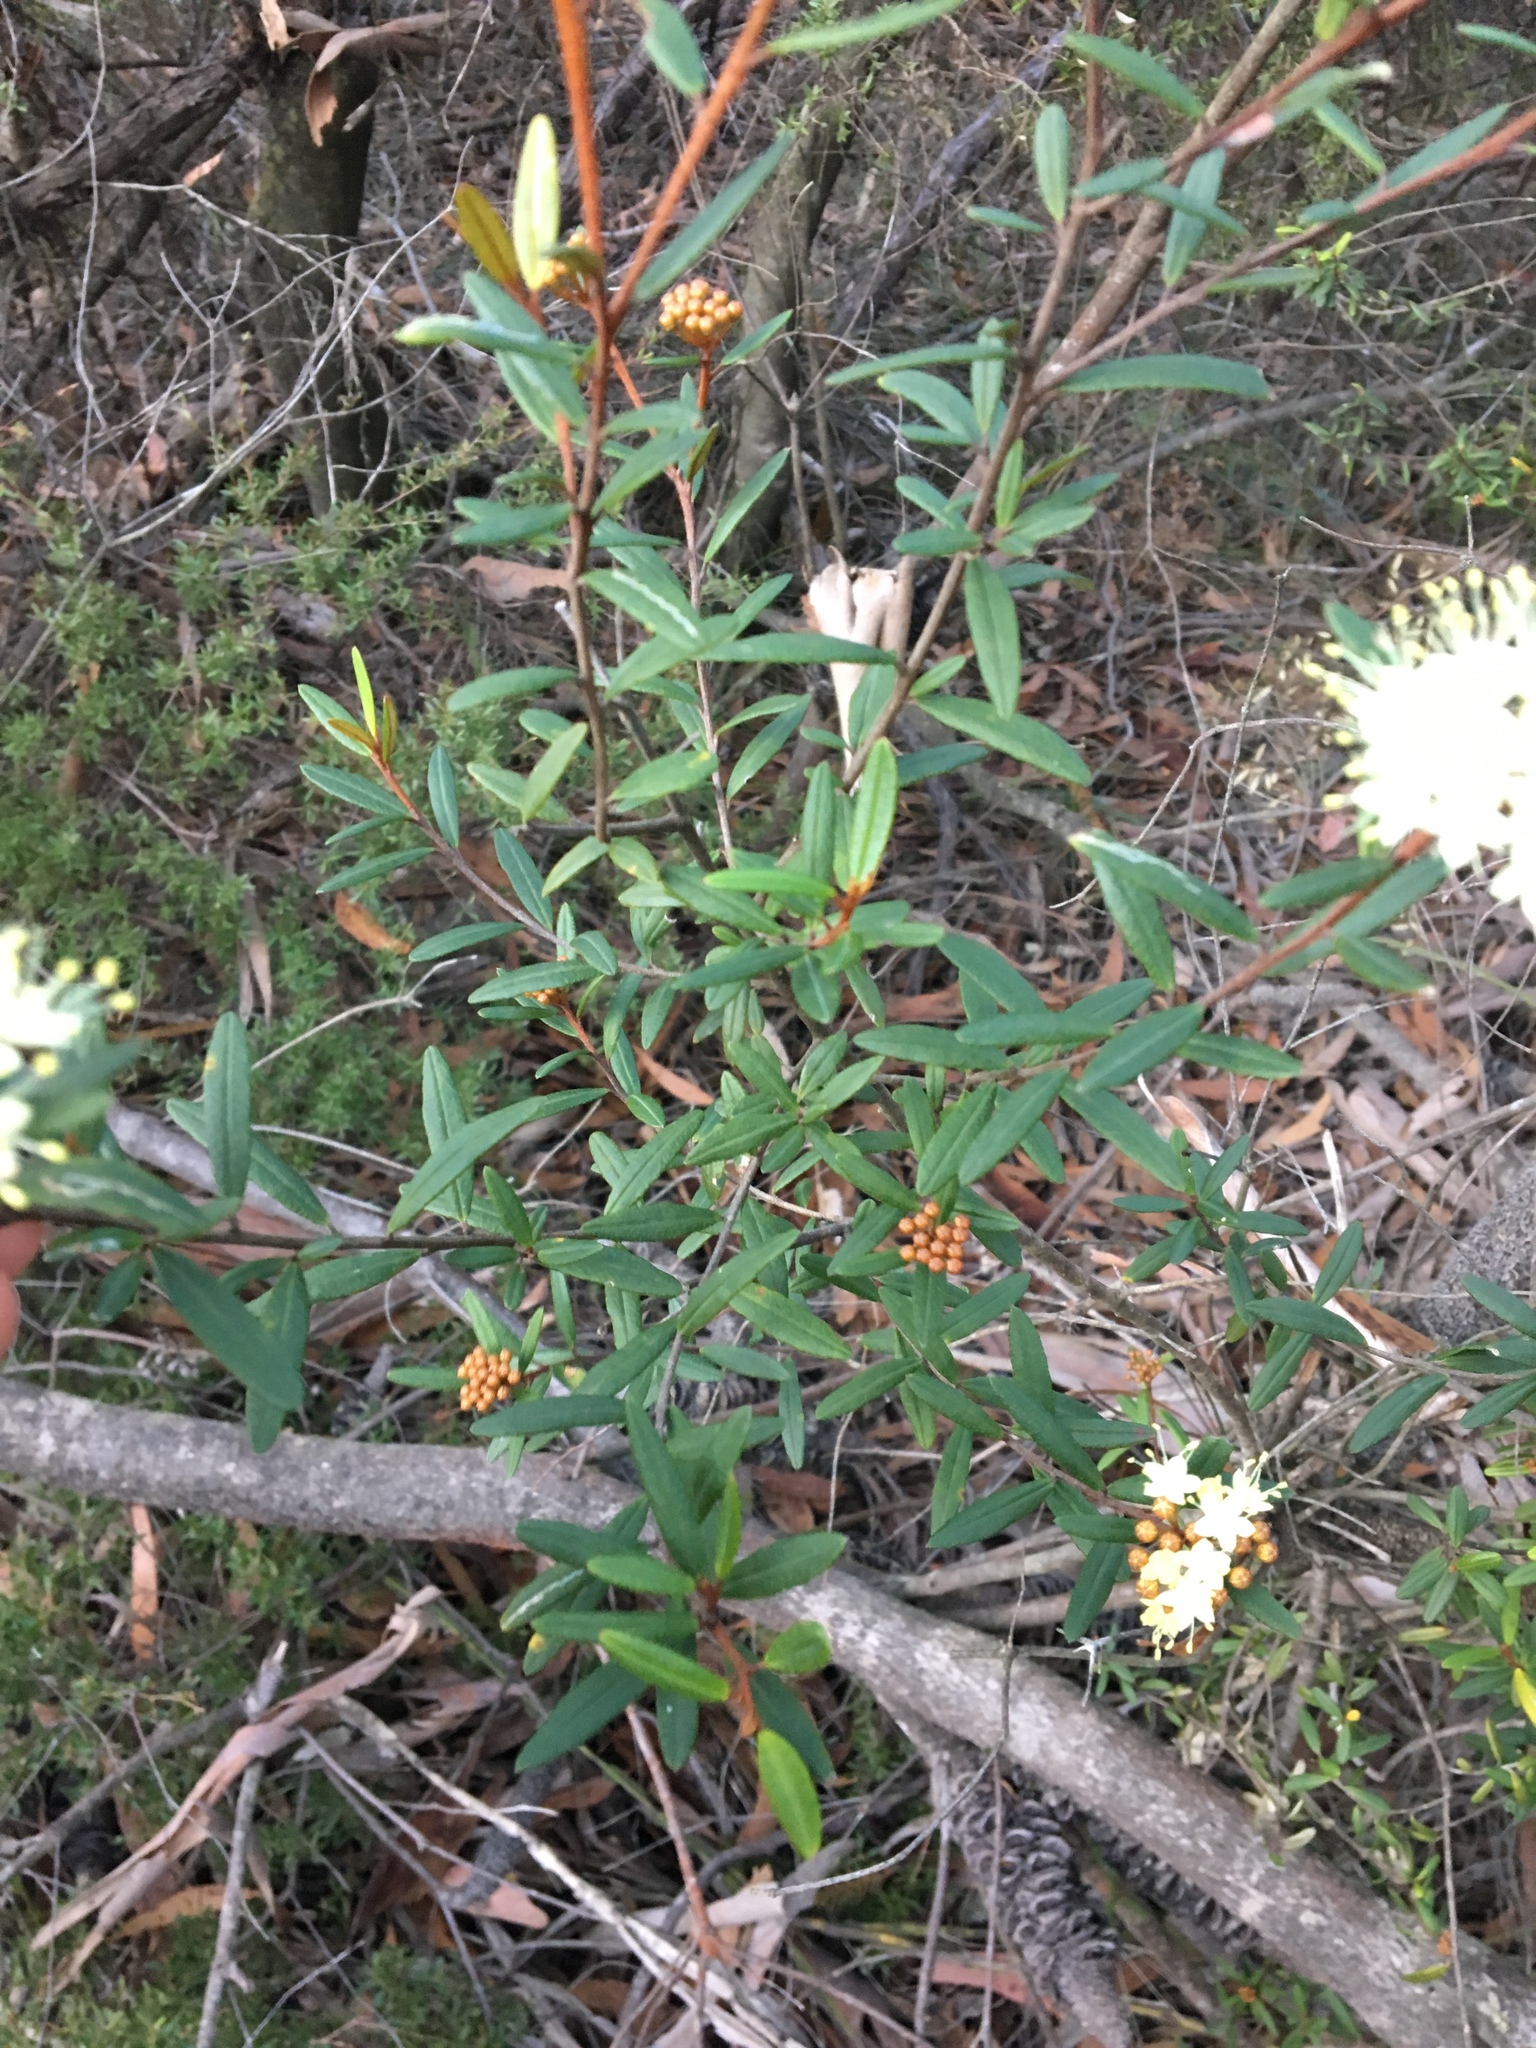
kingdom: Plantae
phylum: Tracheophyta
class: Magnoliopsida
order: Sapindales
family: Rutaceae
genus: Phebalium
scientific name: Phebalium squamulosum
